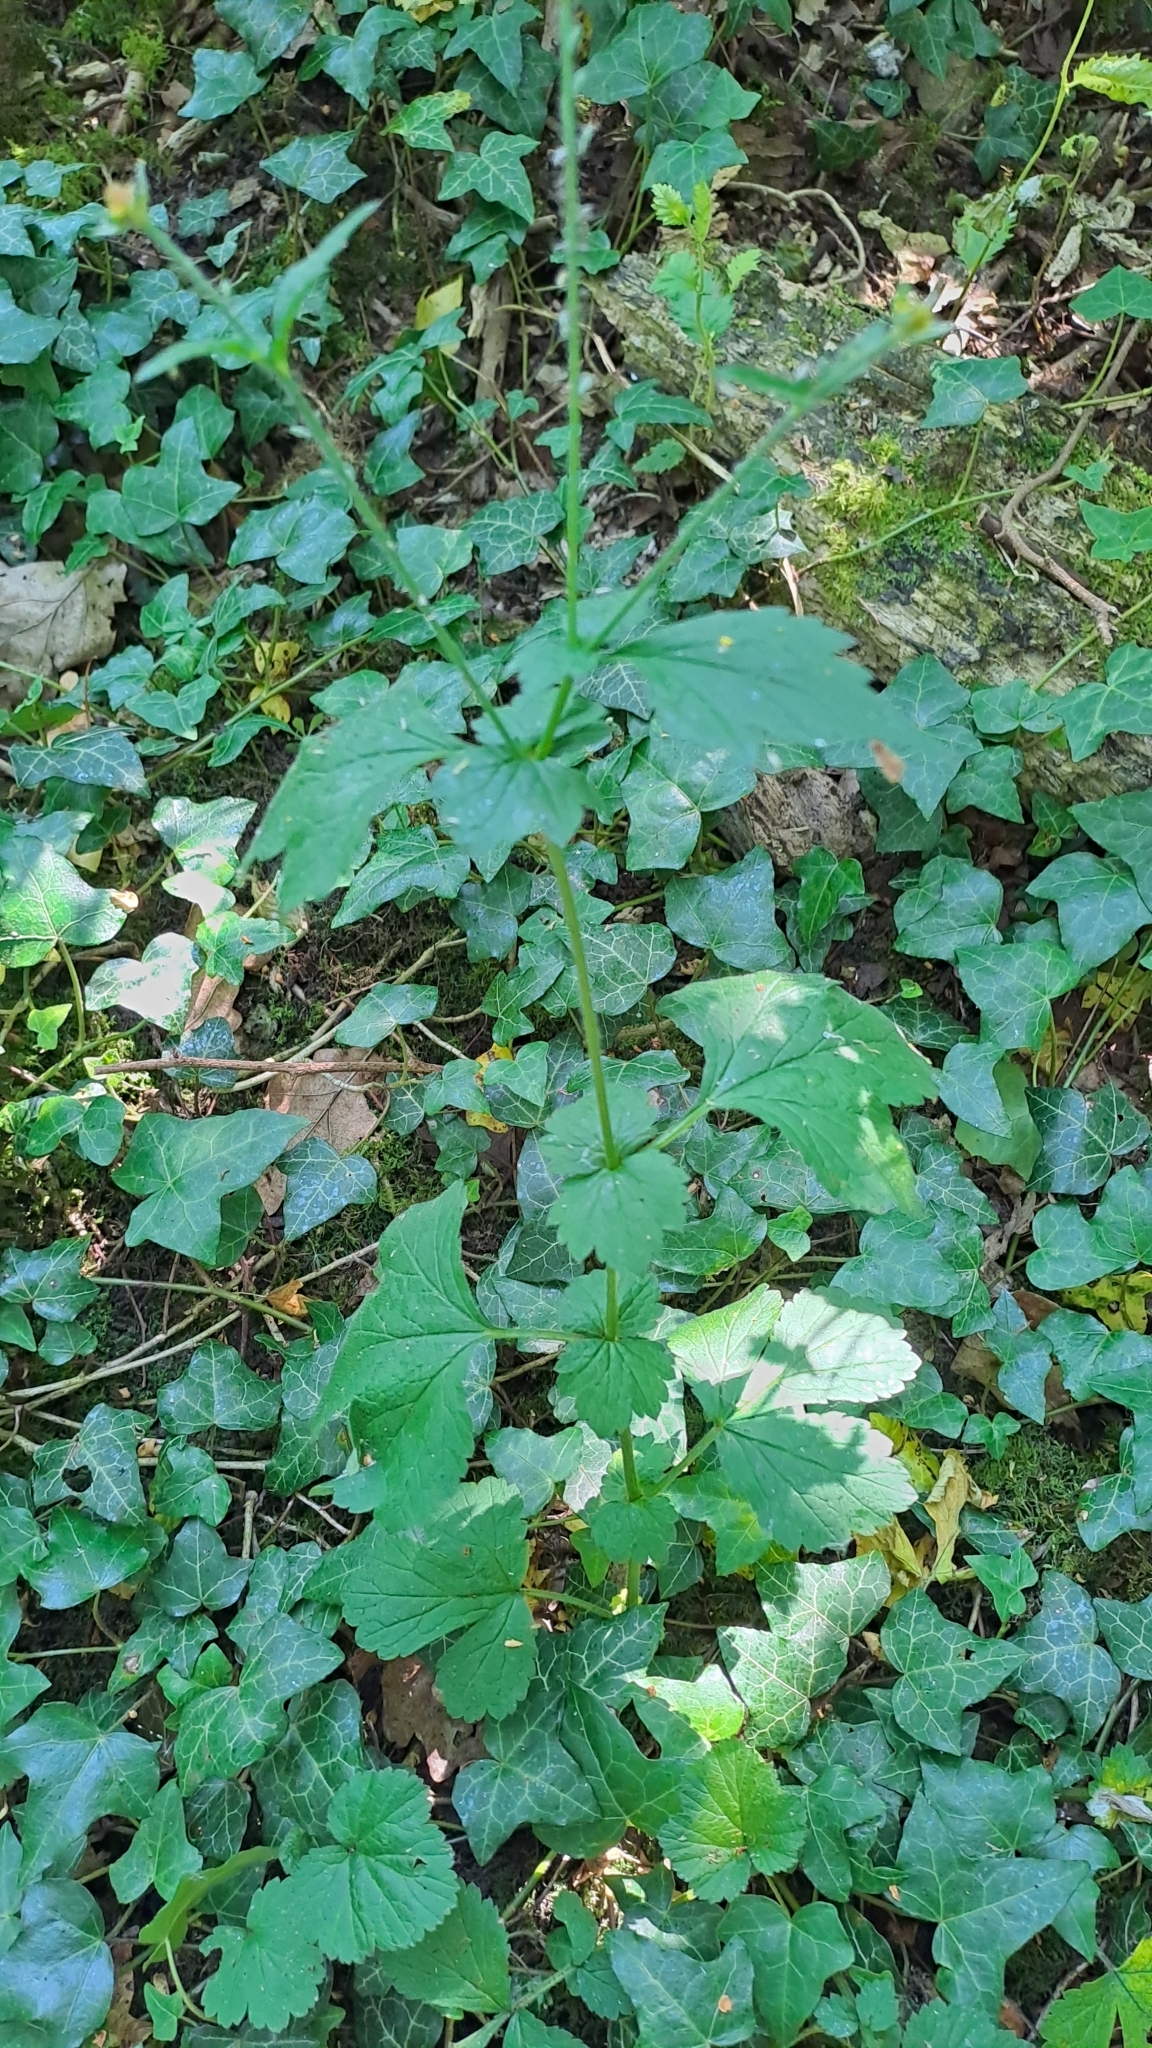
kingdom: Plantae
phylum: Tracheophyta
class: Magnoliopsida
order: Rosales
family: Rosaceae
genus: Geum
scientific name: Geum urbanum
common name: Wood avens
